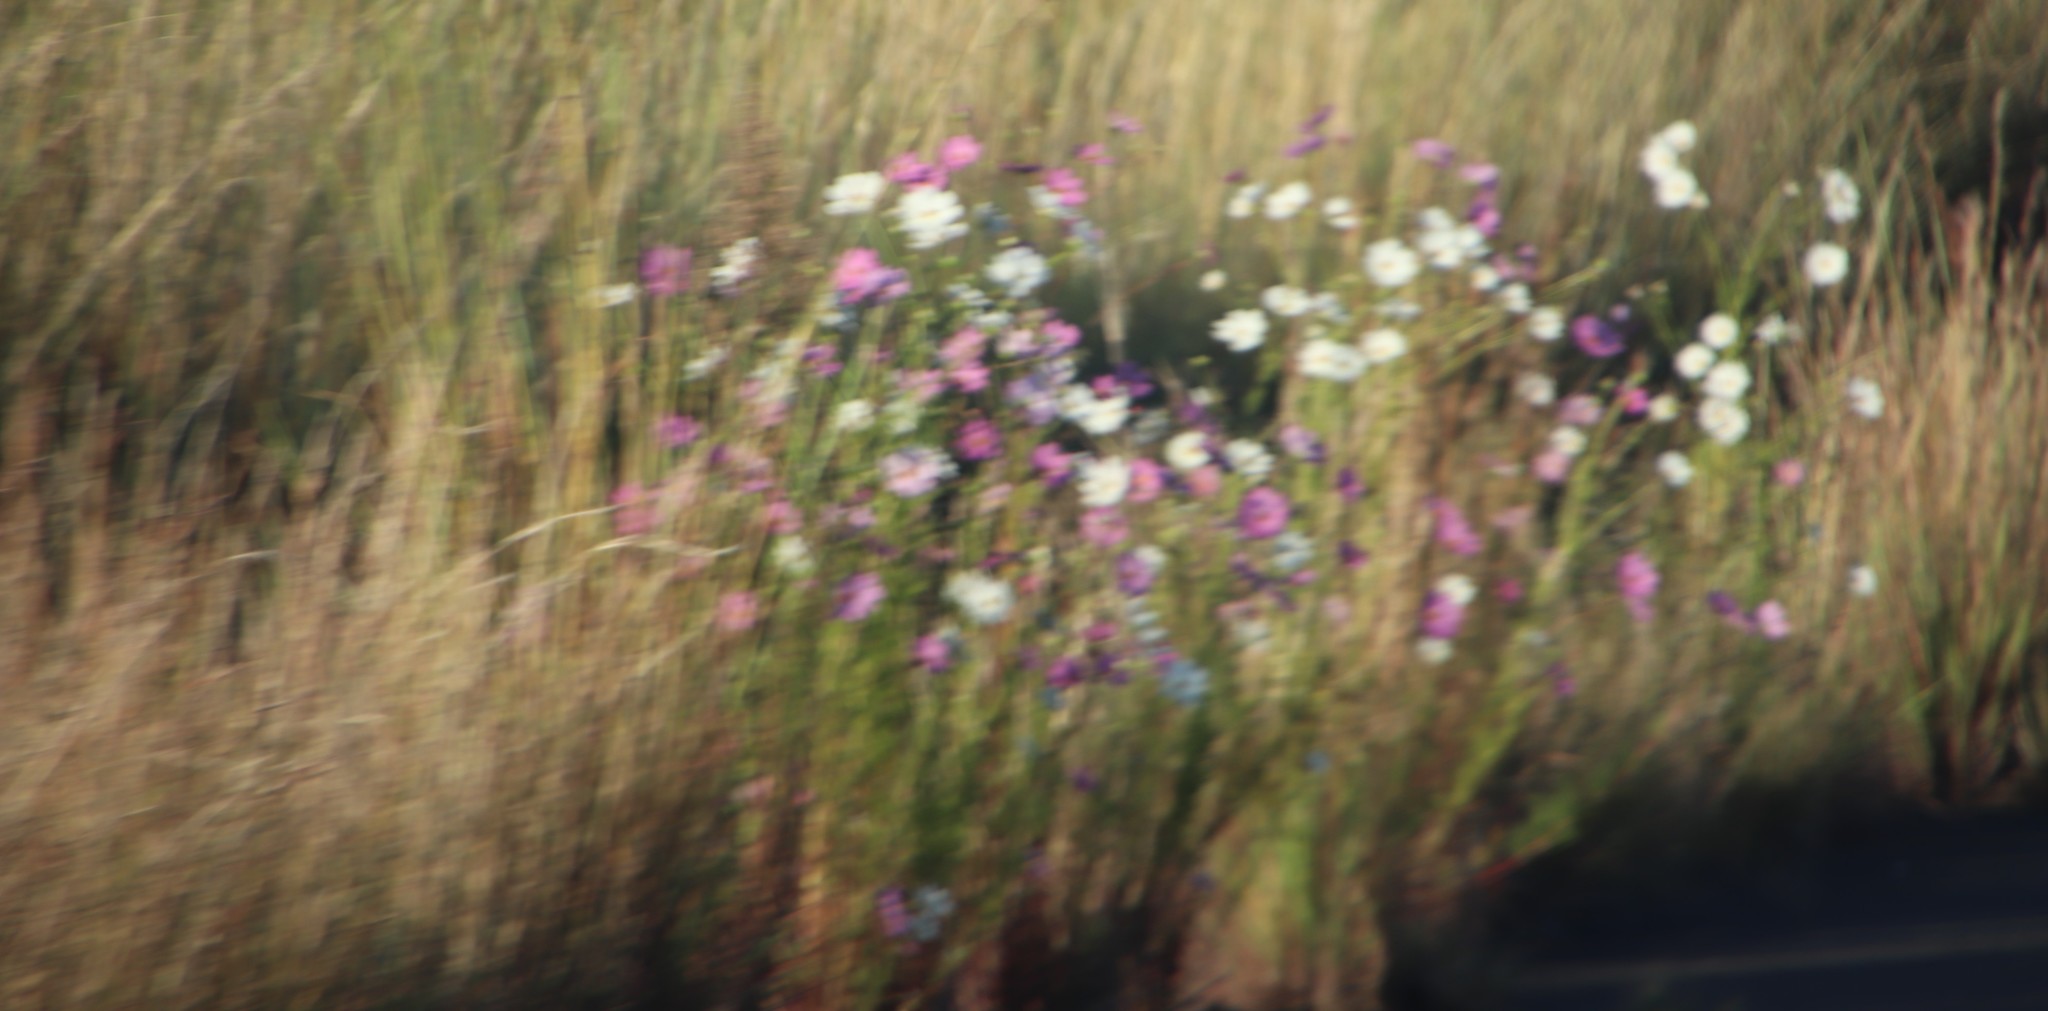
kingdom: Plantae
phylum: Tracheophyta
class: Magnoliopsida
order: Asterales
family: Asteraceae
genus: Cosmos
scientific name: Cosmos bipinnatus
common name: Garden cosmos
